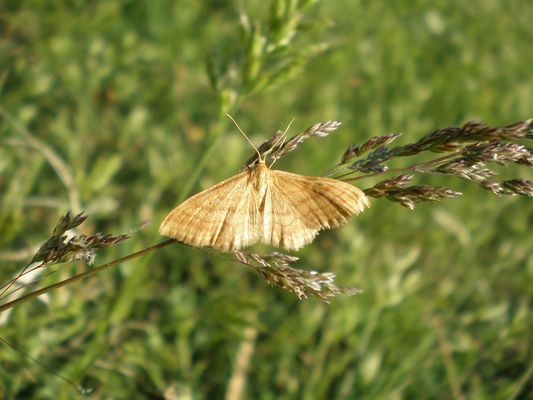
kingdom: Animalia
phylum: Arthropoda
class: Insecta
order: Lepidoptera
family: Geometridae
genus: Idaea
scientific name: Idaea ochrata
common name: Bright wave
